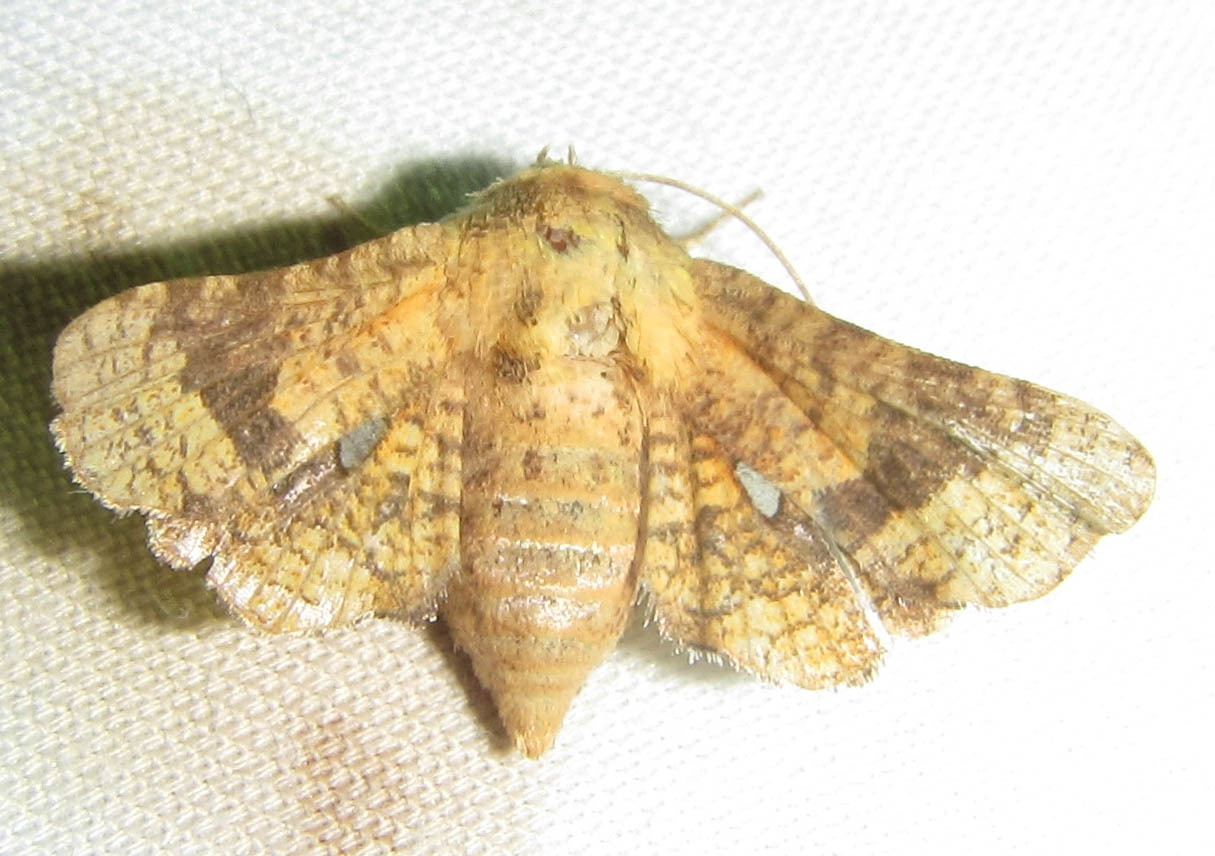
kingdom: Animalia
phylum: Arthropoda
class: Insecta
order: Lepidoptera
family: Thyrididae
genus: Dysodia
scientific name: Dysodia constellata
